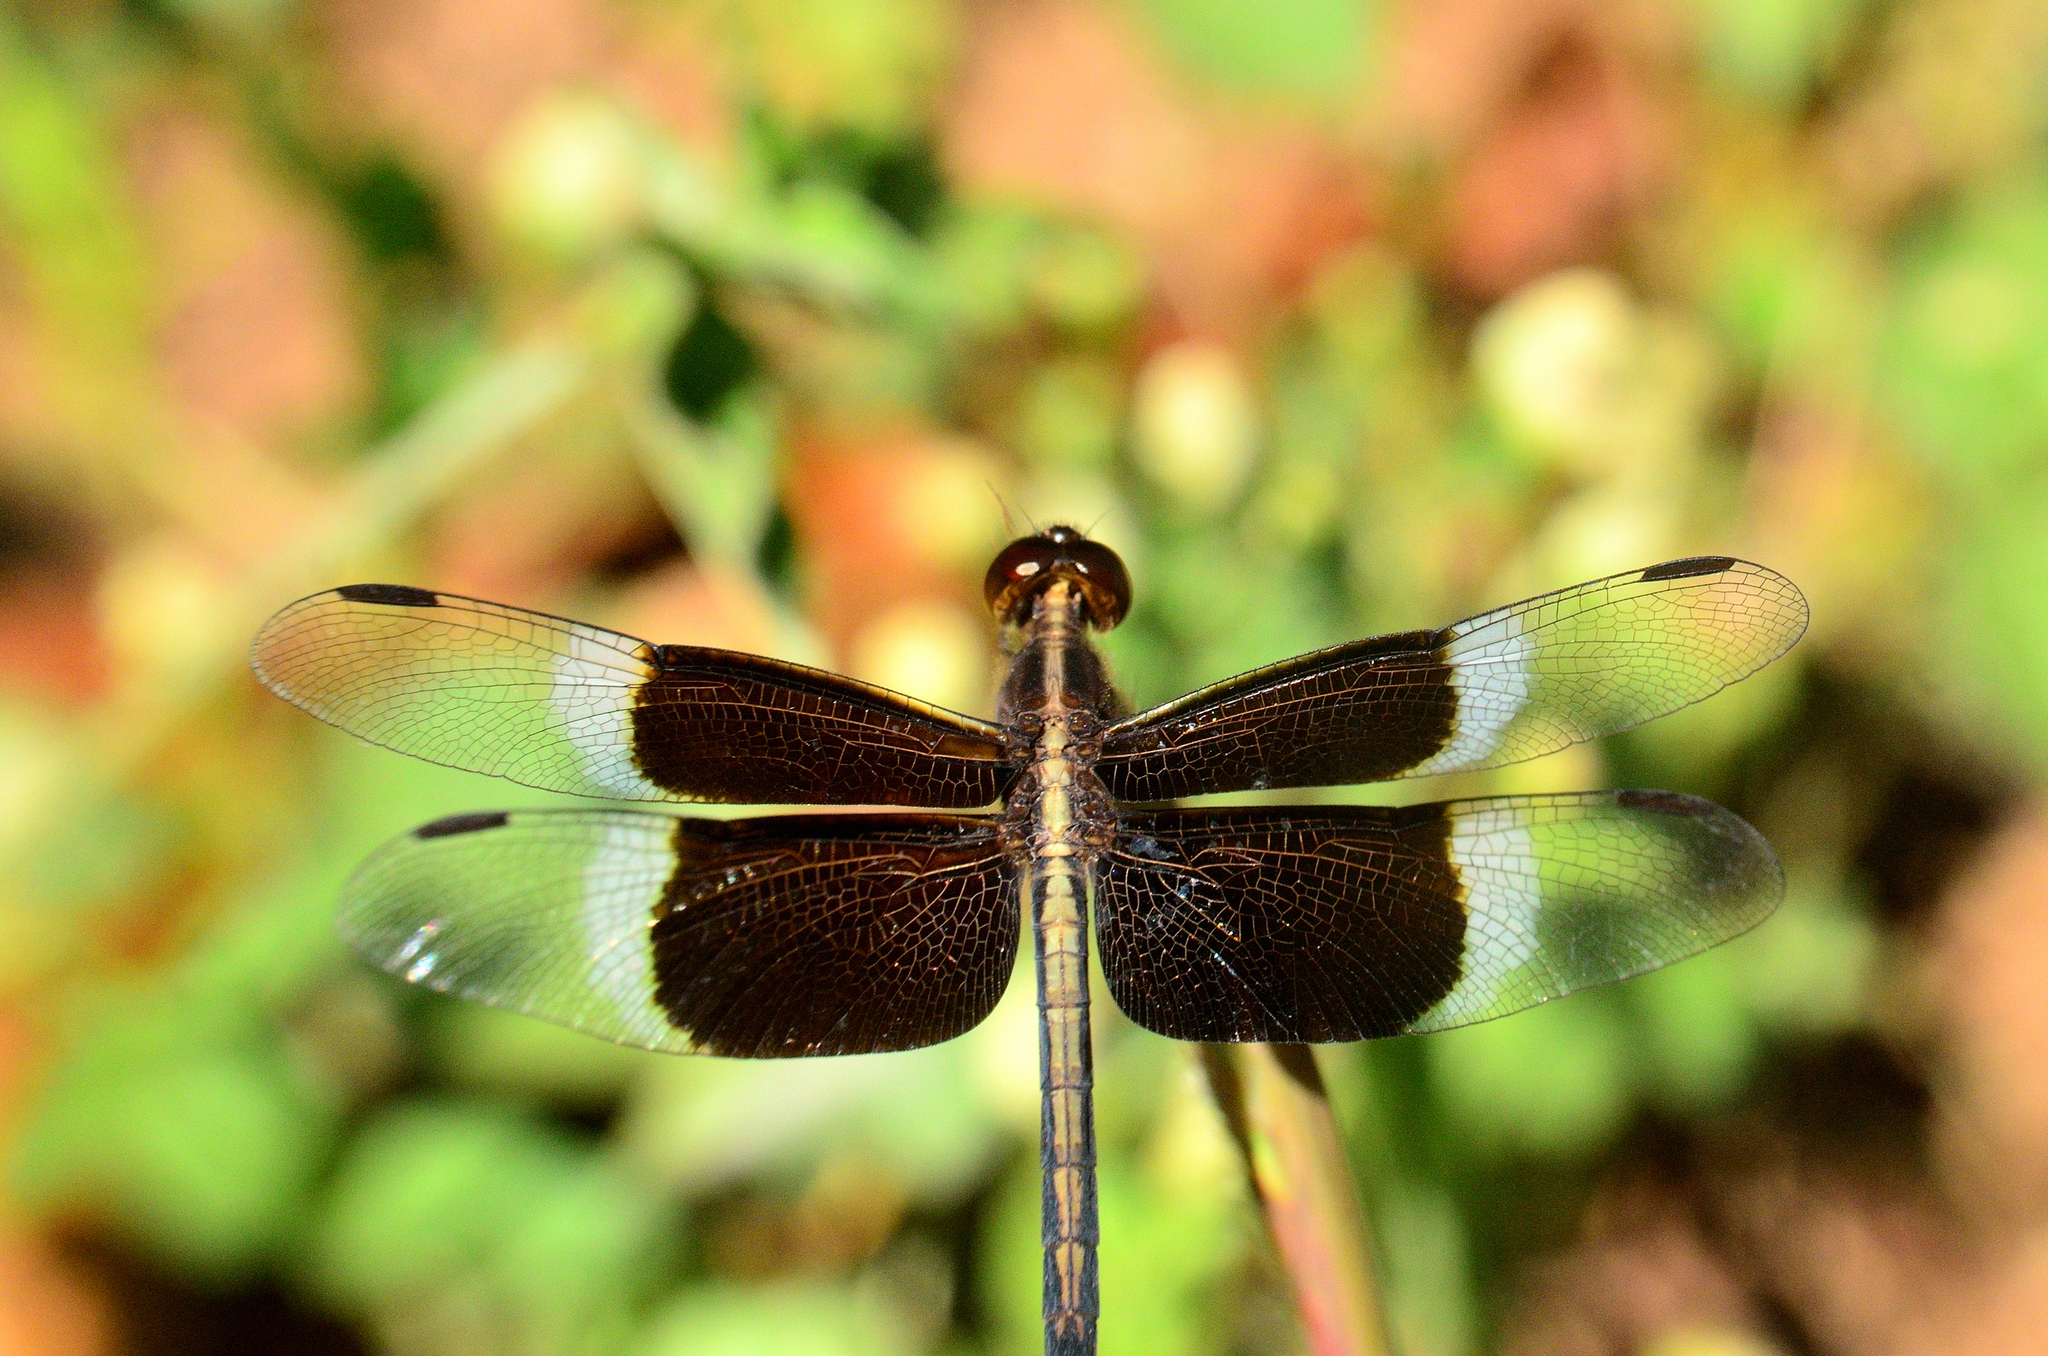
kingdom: Animalia
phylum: Arthropoda
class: Insecta
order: Odonata
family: Libellulidae
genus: Neurothemis
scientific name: Neurothemis tullia
